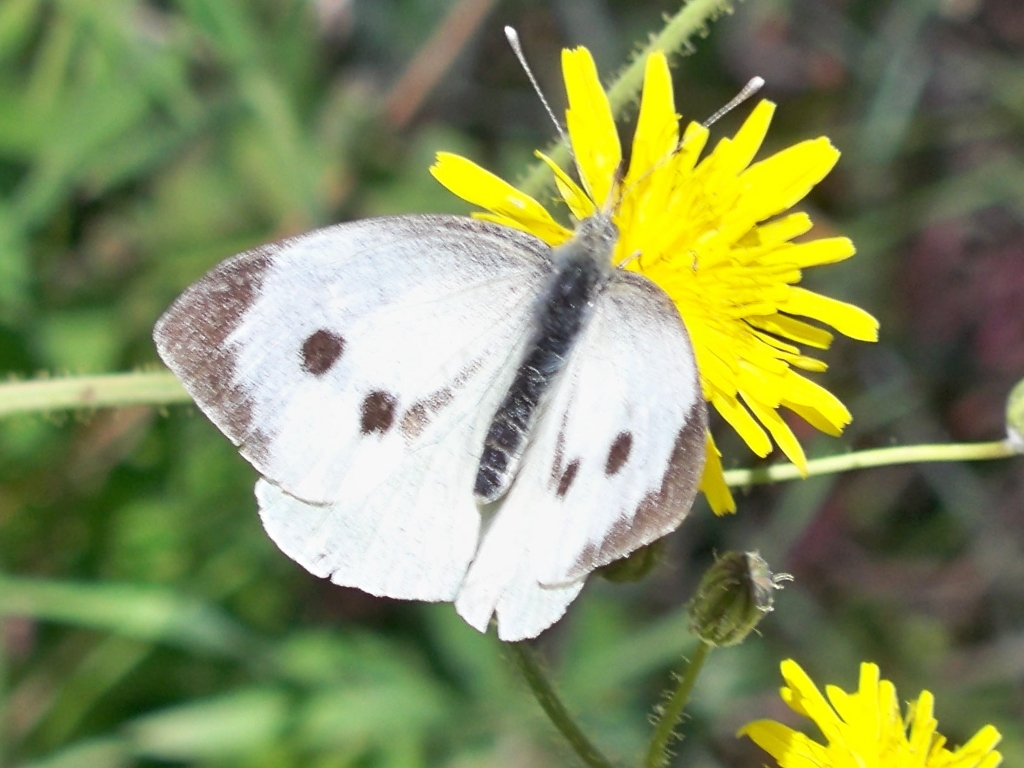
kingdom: Animalia
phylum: Arthropoda
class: Insecta
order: Lepidoptera
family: Pieridae
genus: Pieris
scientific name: Pieris brassicae
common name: Large white
